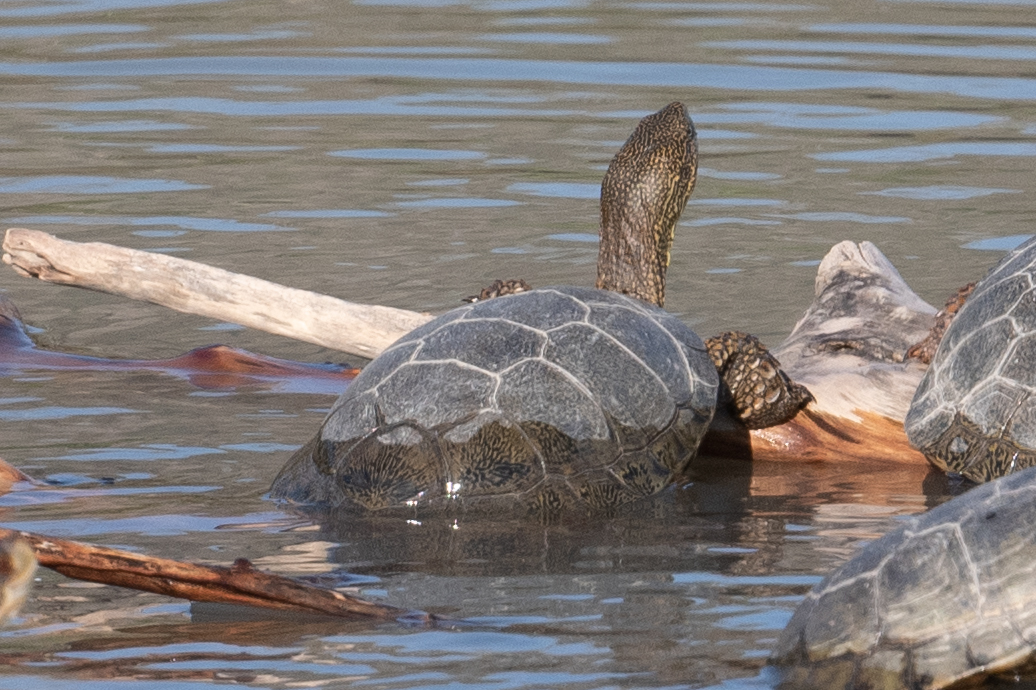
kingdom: Animalia
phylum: Chordata
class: Testudines
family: Emydidae
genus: Actinemys
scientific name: Actinemys marmorata
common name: Western pond turtle
